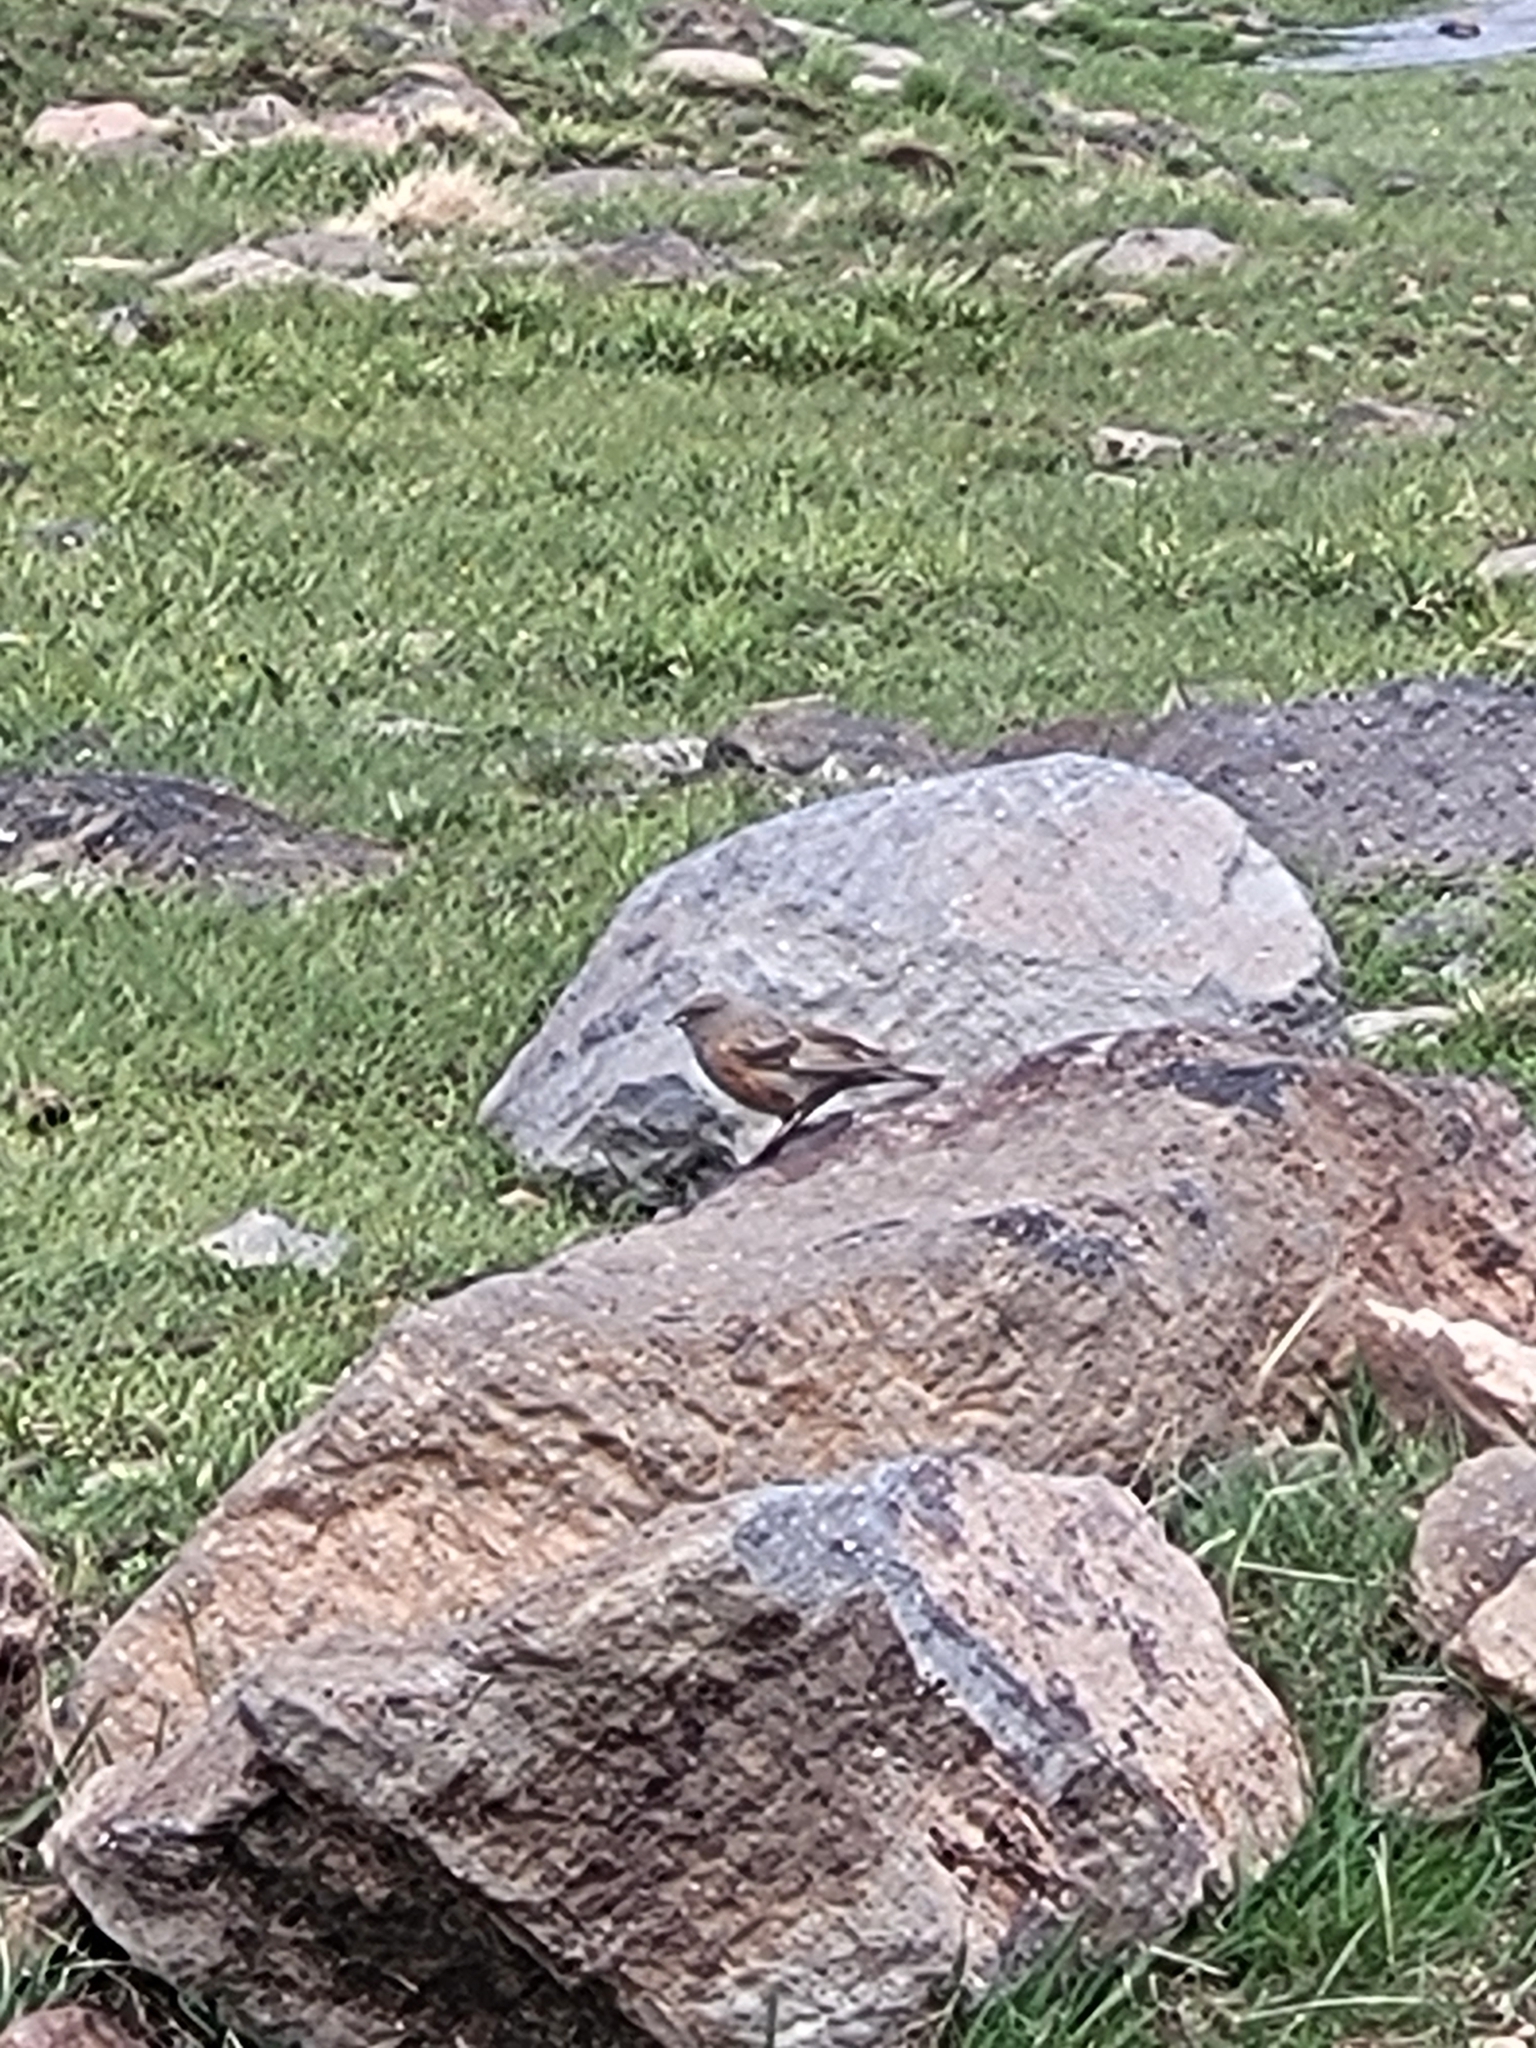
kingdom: Animalia
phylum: Chordata
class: Aves
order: Passeriformes
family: Prunellidae
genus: Prunella
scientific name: Prunella collaris
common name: Alpine accentor
